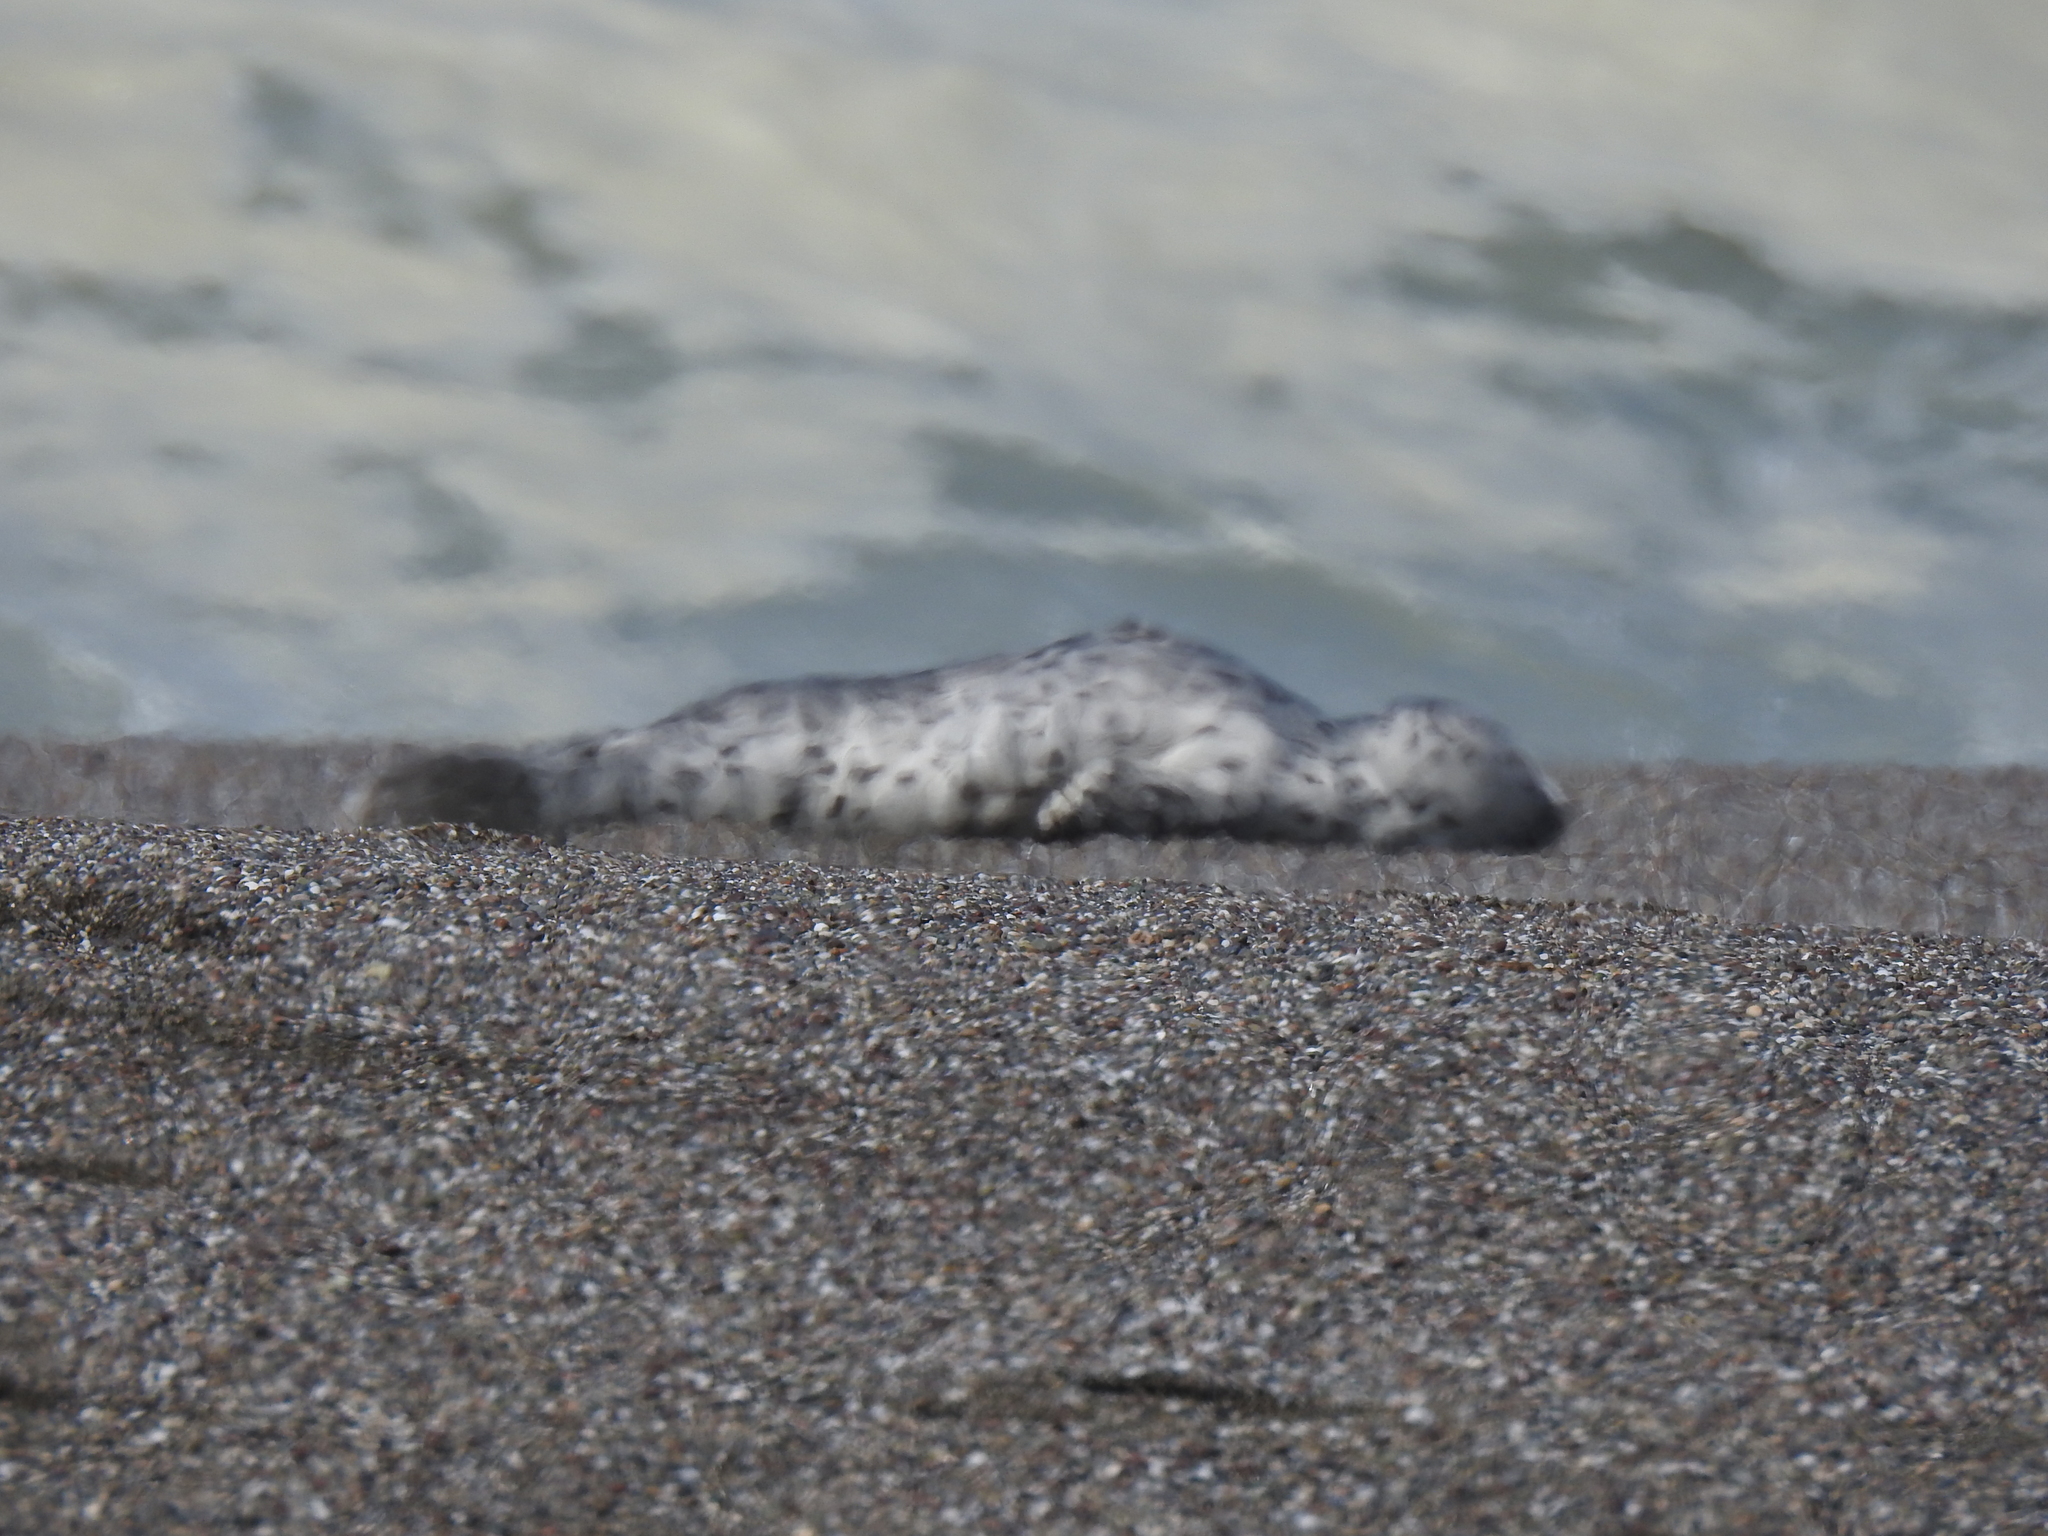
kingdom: Animalia
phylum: Chordata
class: Mammalia
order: Carnivora
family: Phocidae
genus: Phoca
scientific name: Phoca vitulina
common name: Harbor seal
